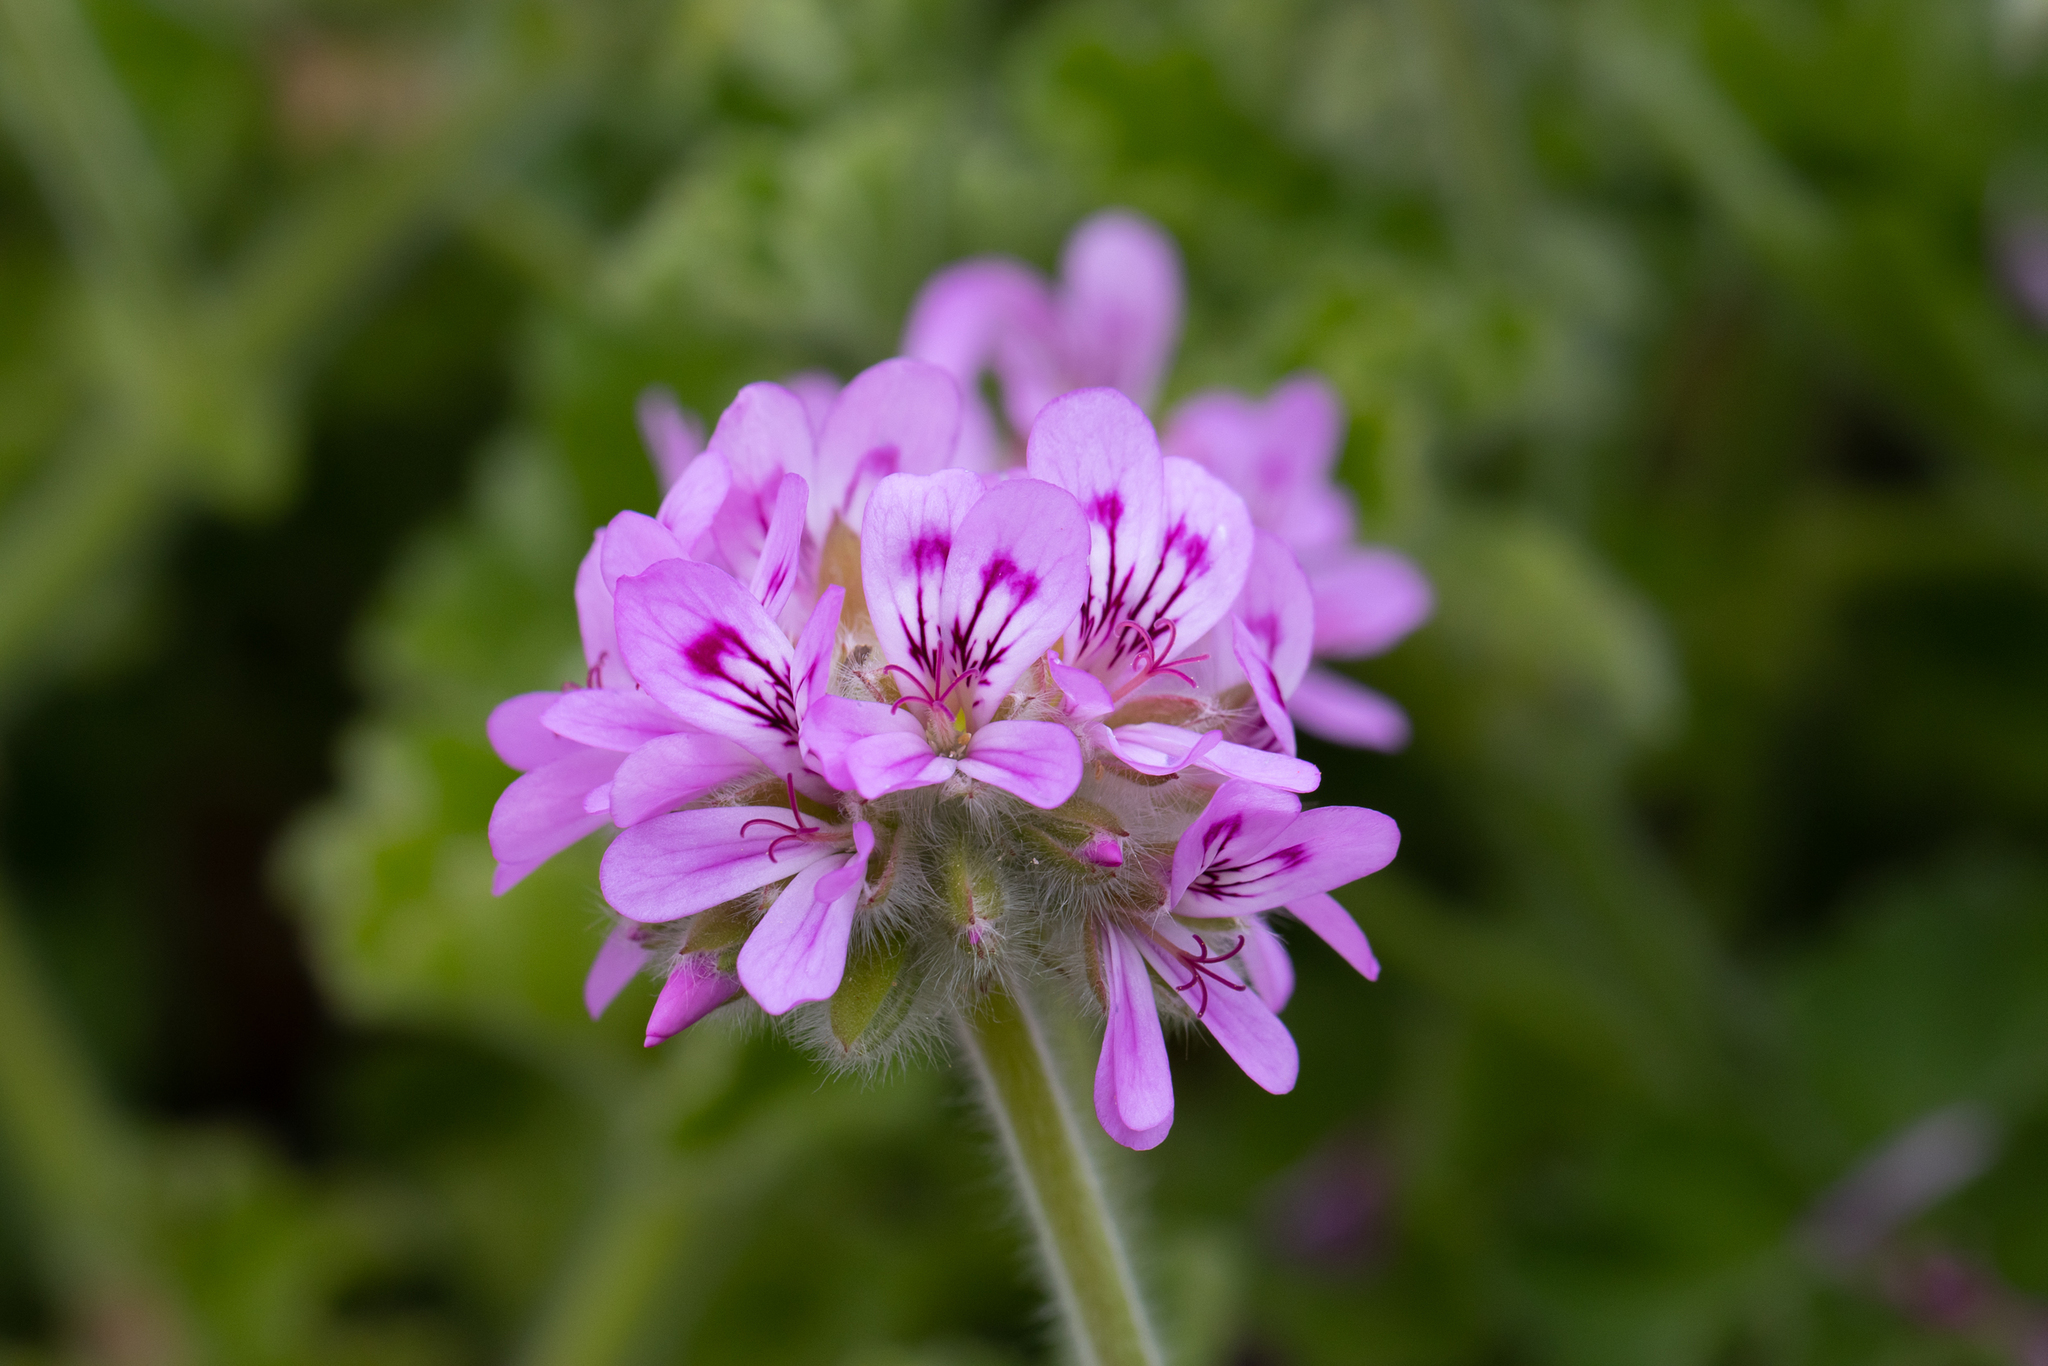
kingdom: Plantae
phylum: Tracheophyta
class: Magnoliopsida
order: Geraniales
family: Geraniaceae
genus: Pelargonium
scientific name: Pelargonium capitatum
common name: Rose scented geranium
